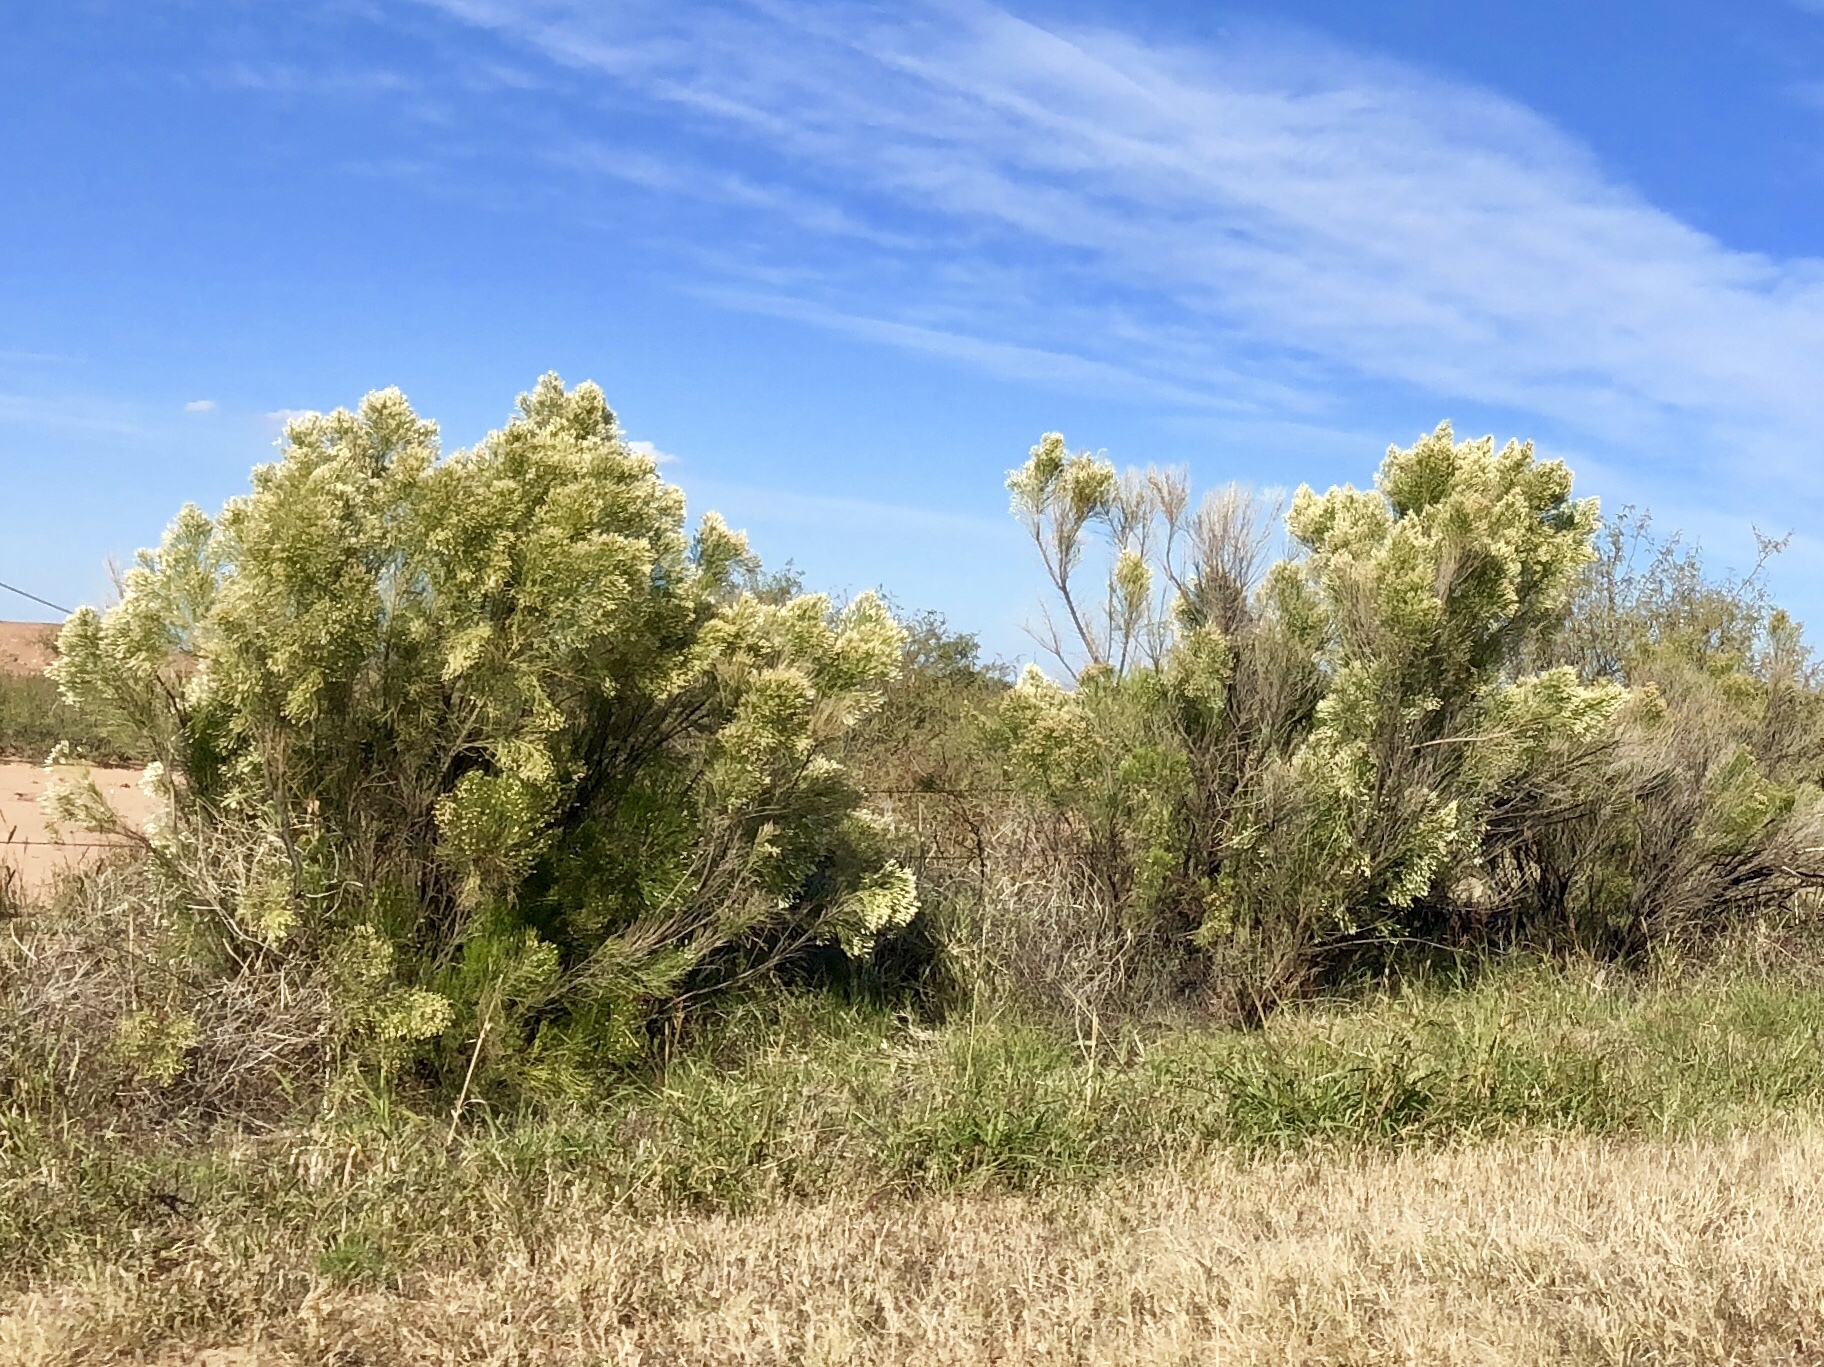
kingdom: Plantae
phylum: Tracheophyta
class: Magnoliopsida
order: Asterales
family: Asteraceae
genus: Baccharis
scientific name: Baccharis sarothroides
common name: Desert-broom
